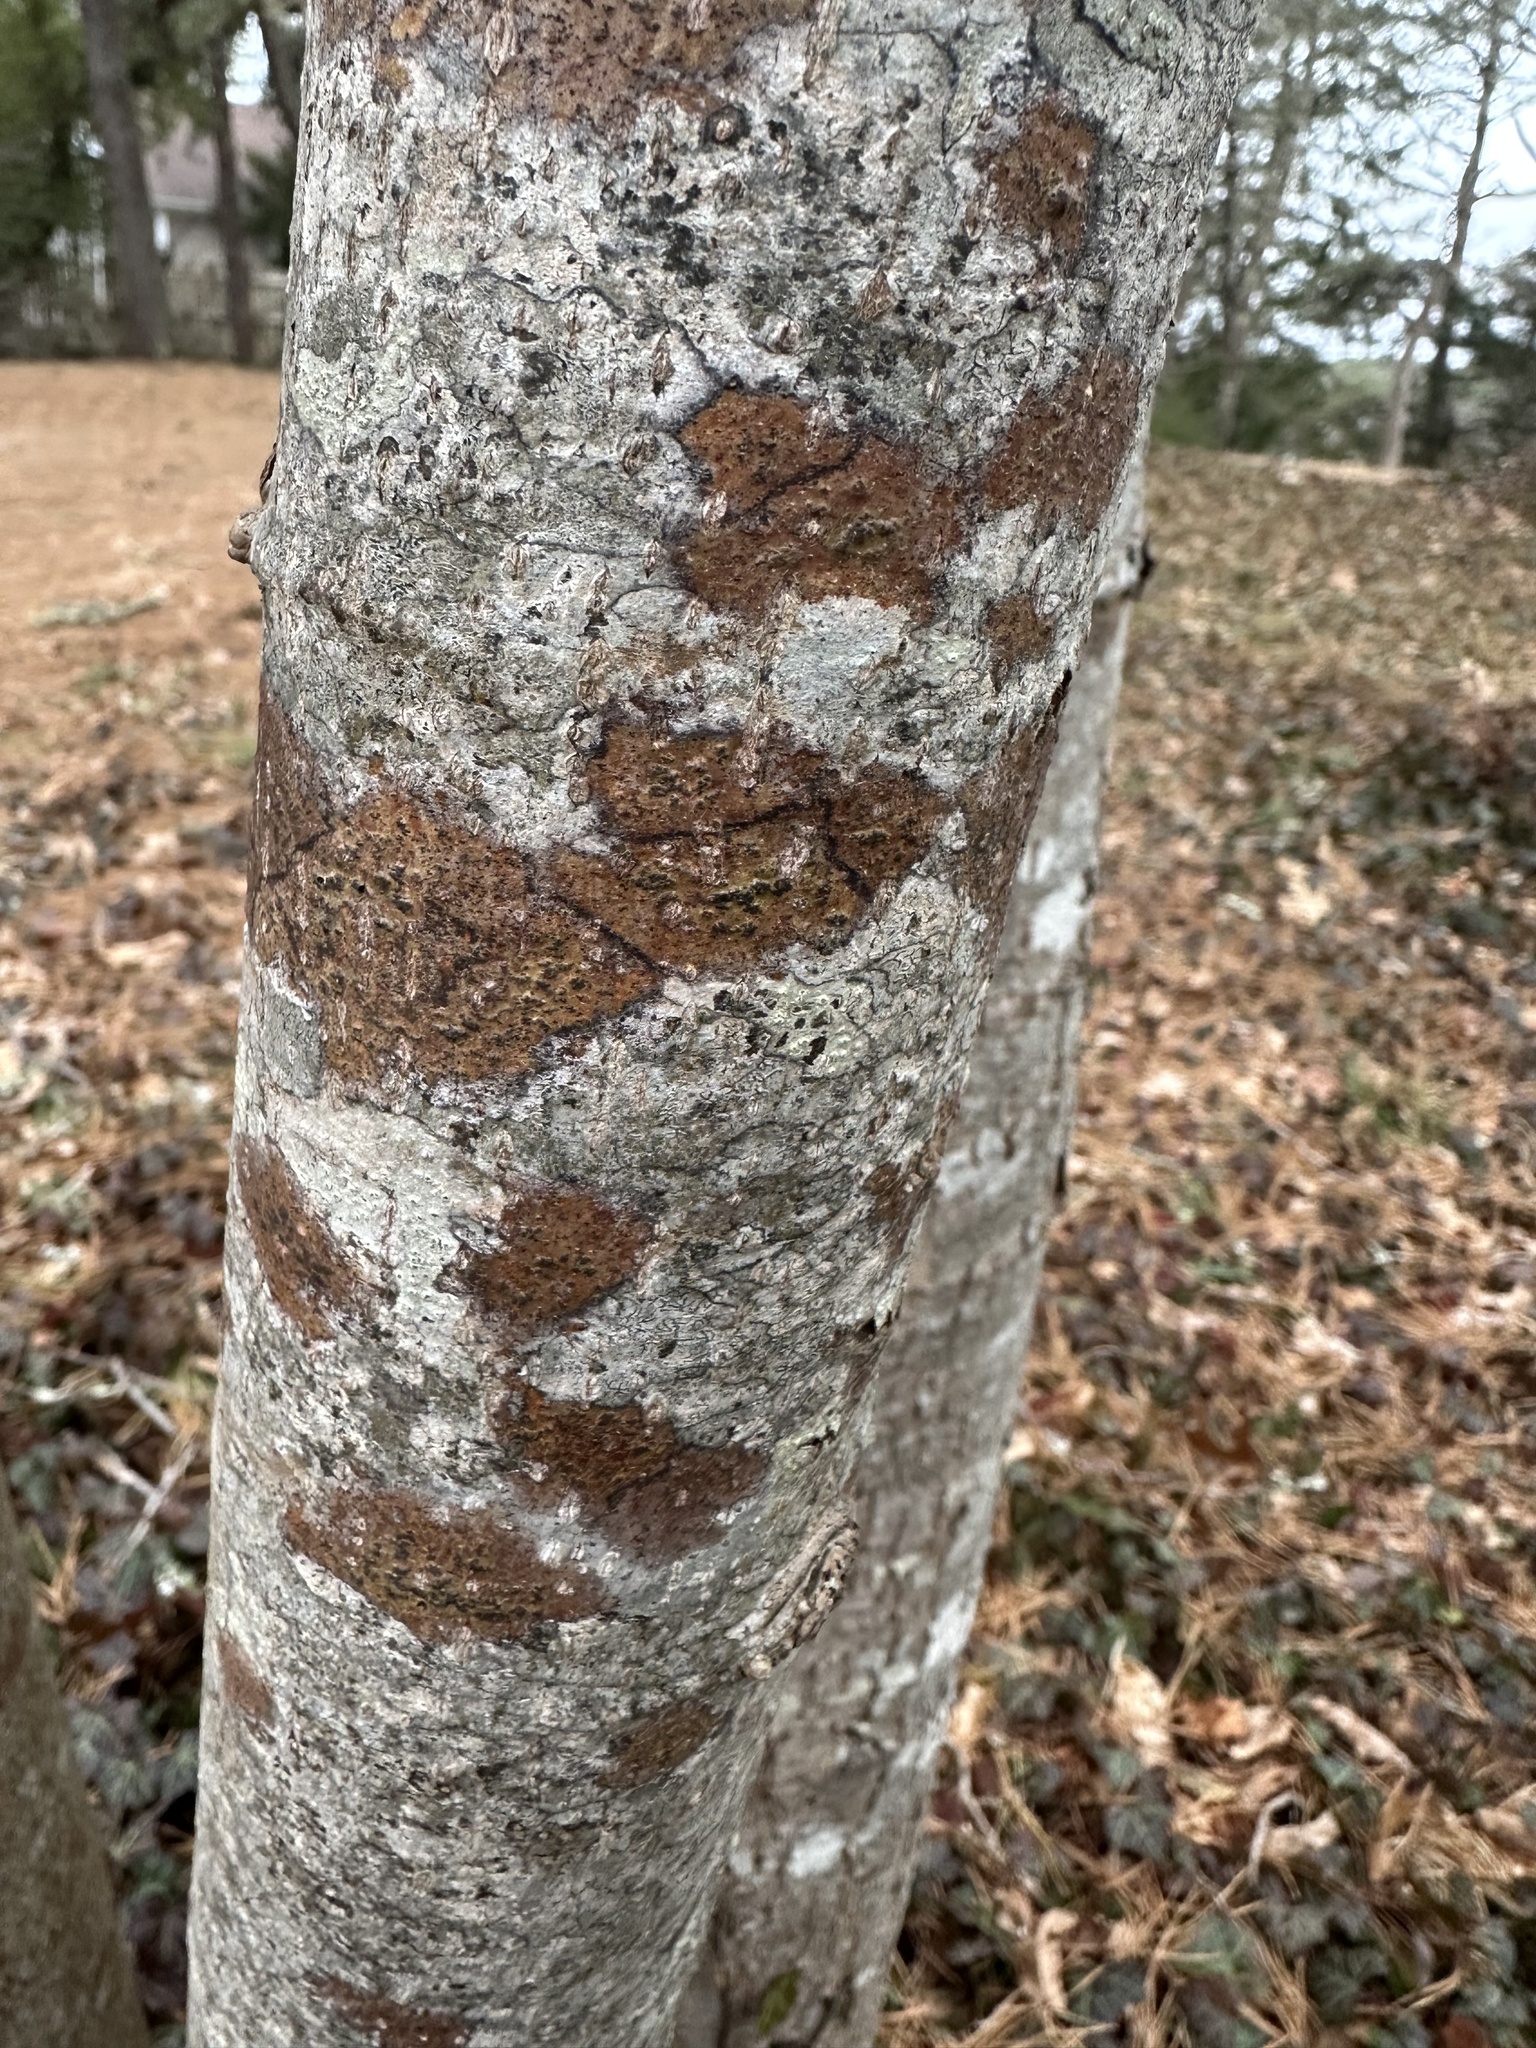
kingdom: Fungi
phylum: Ascomycota
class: Dothideomycetes
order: Trypetheliales
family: Trypetheliaceae
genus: Viridothelium
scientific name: Viridothelium virens
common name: Speckled blister lichen
